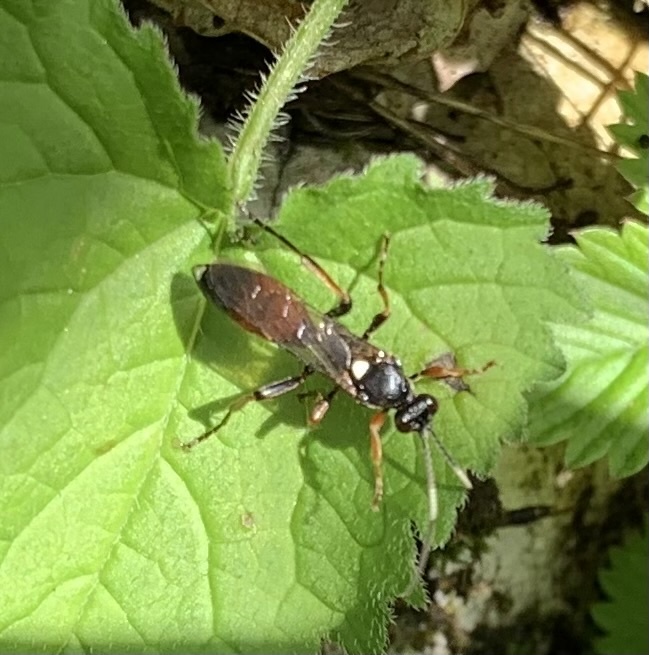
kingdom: Animalia
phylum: Arthropoda
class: Insecta
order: Hymenoptera
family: Ichneumonidae
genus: Ichneumon
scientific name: Ichneumon confusor
